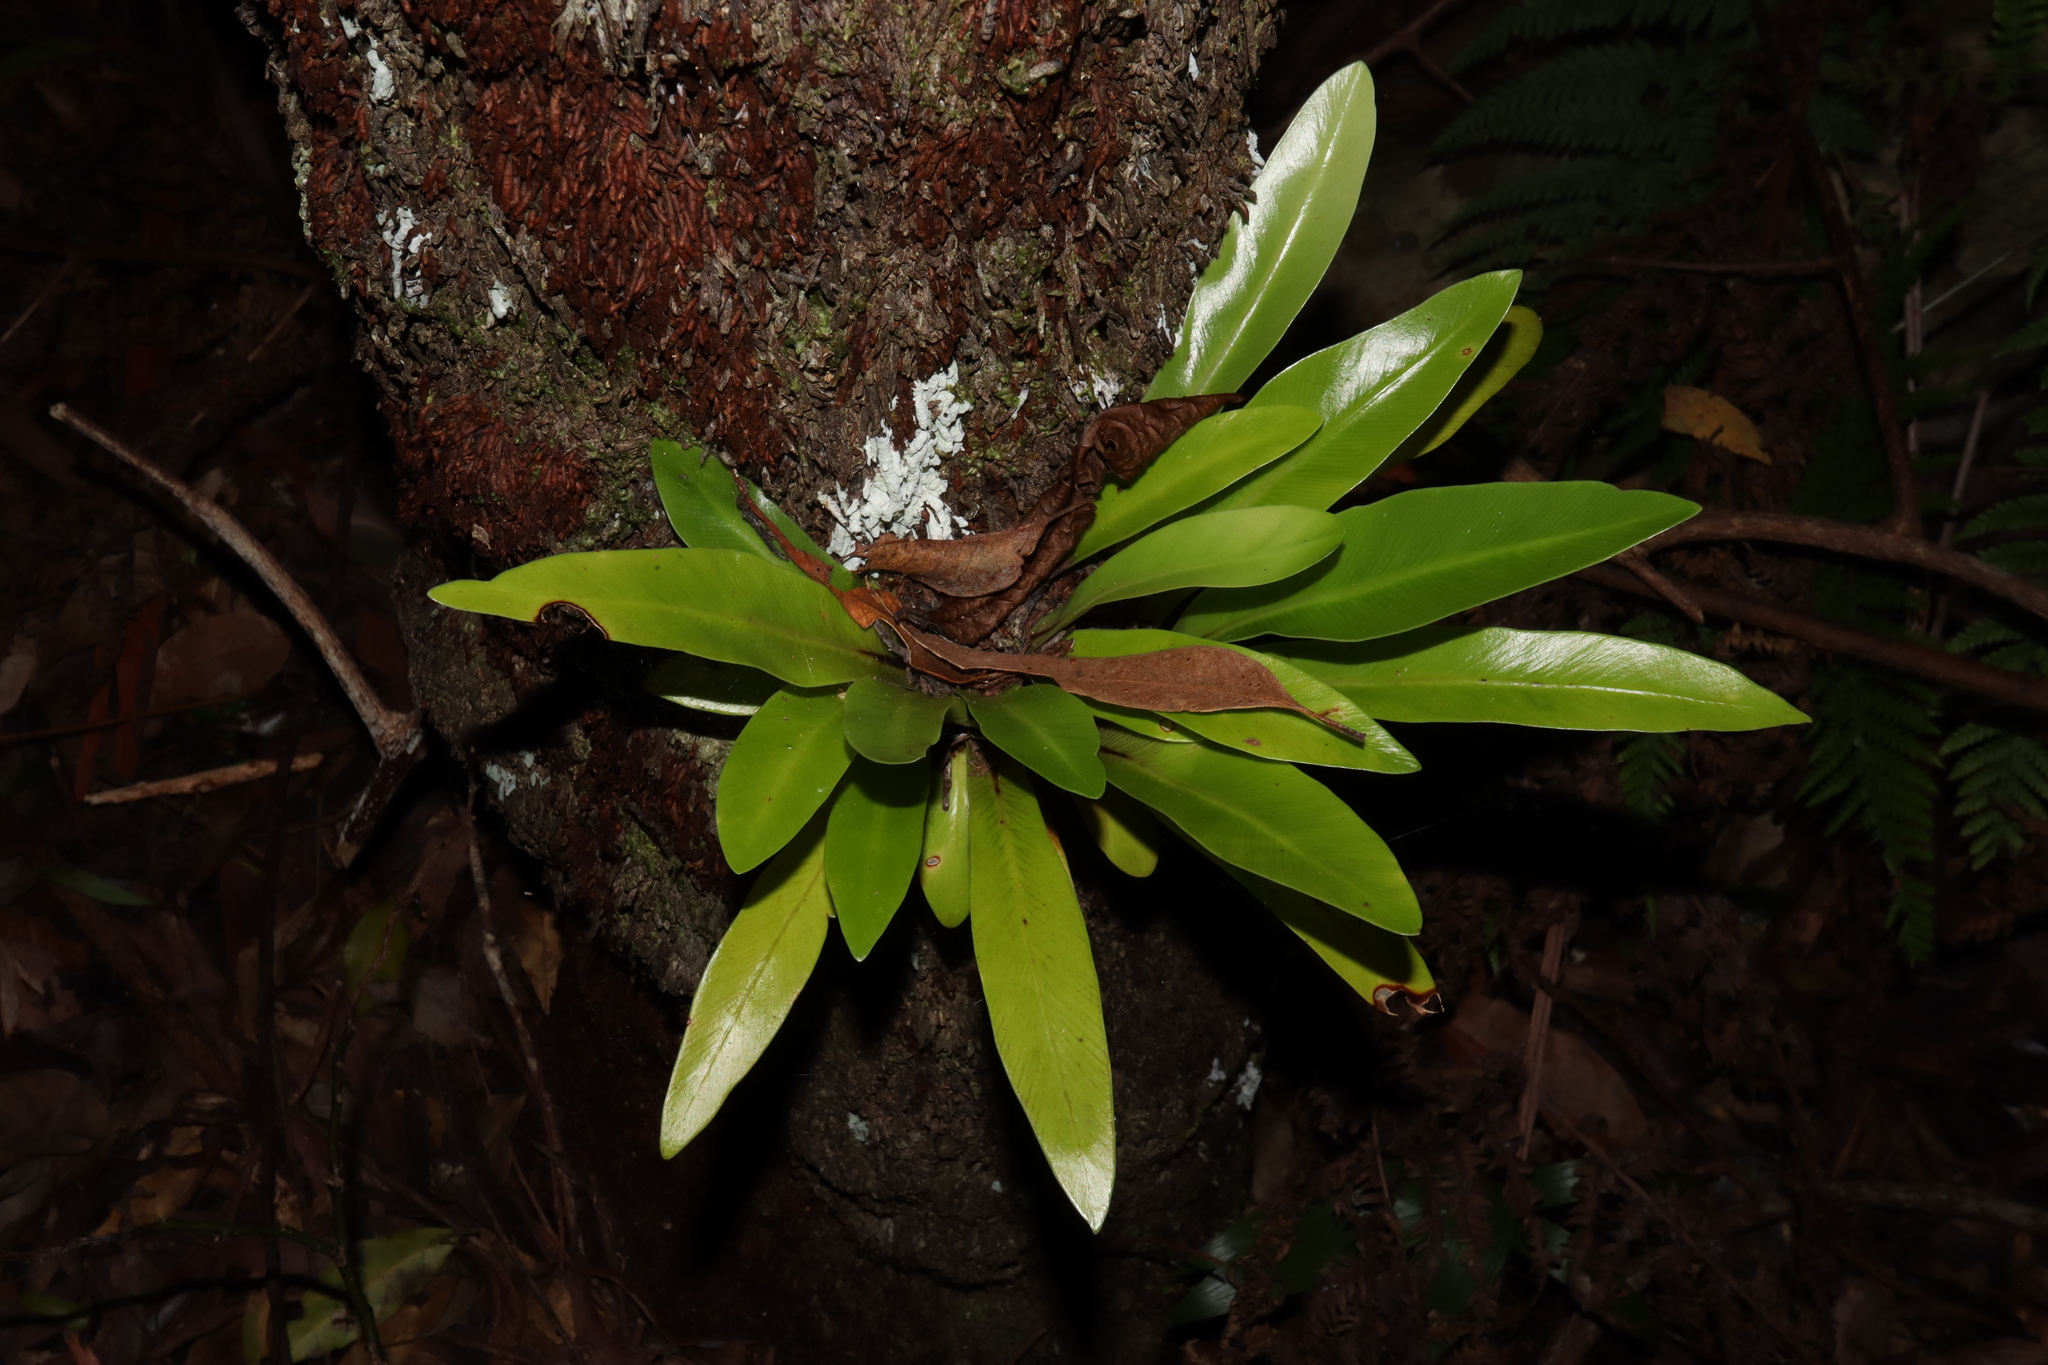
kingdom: Plantae
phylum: Tracheophyta
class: Polypodiopsida
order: Polypodiales
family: Aspleniaceae
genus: Asplenium
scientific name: Asplenium australasicum
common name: Bird's-nest fern
